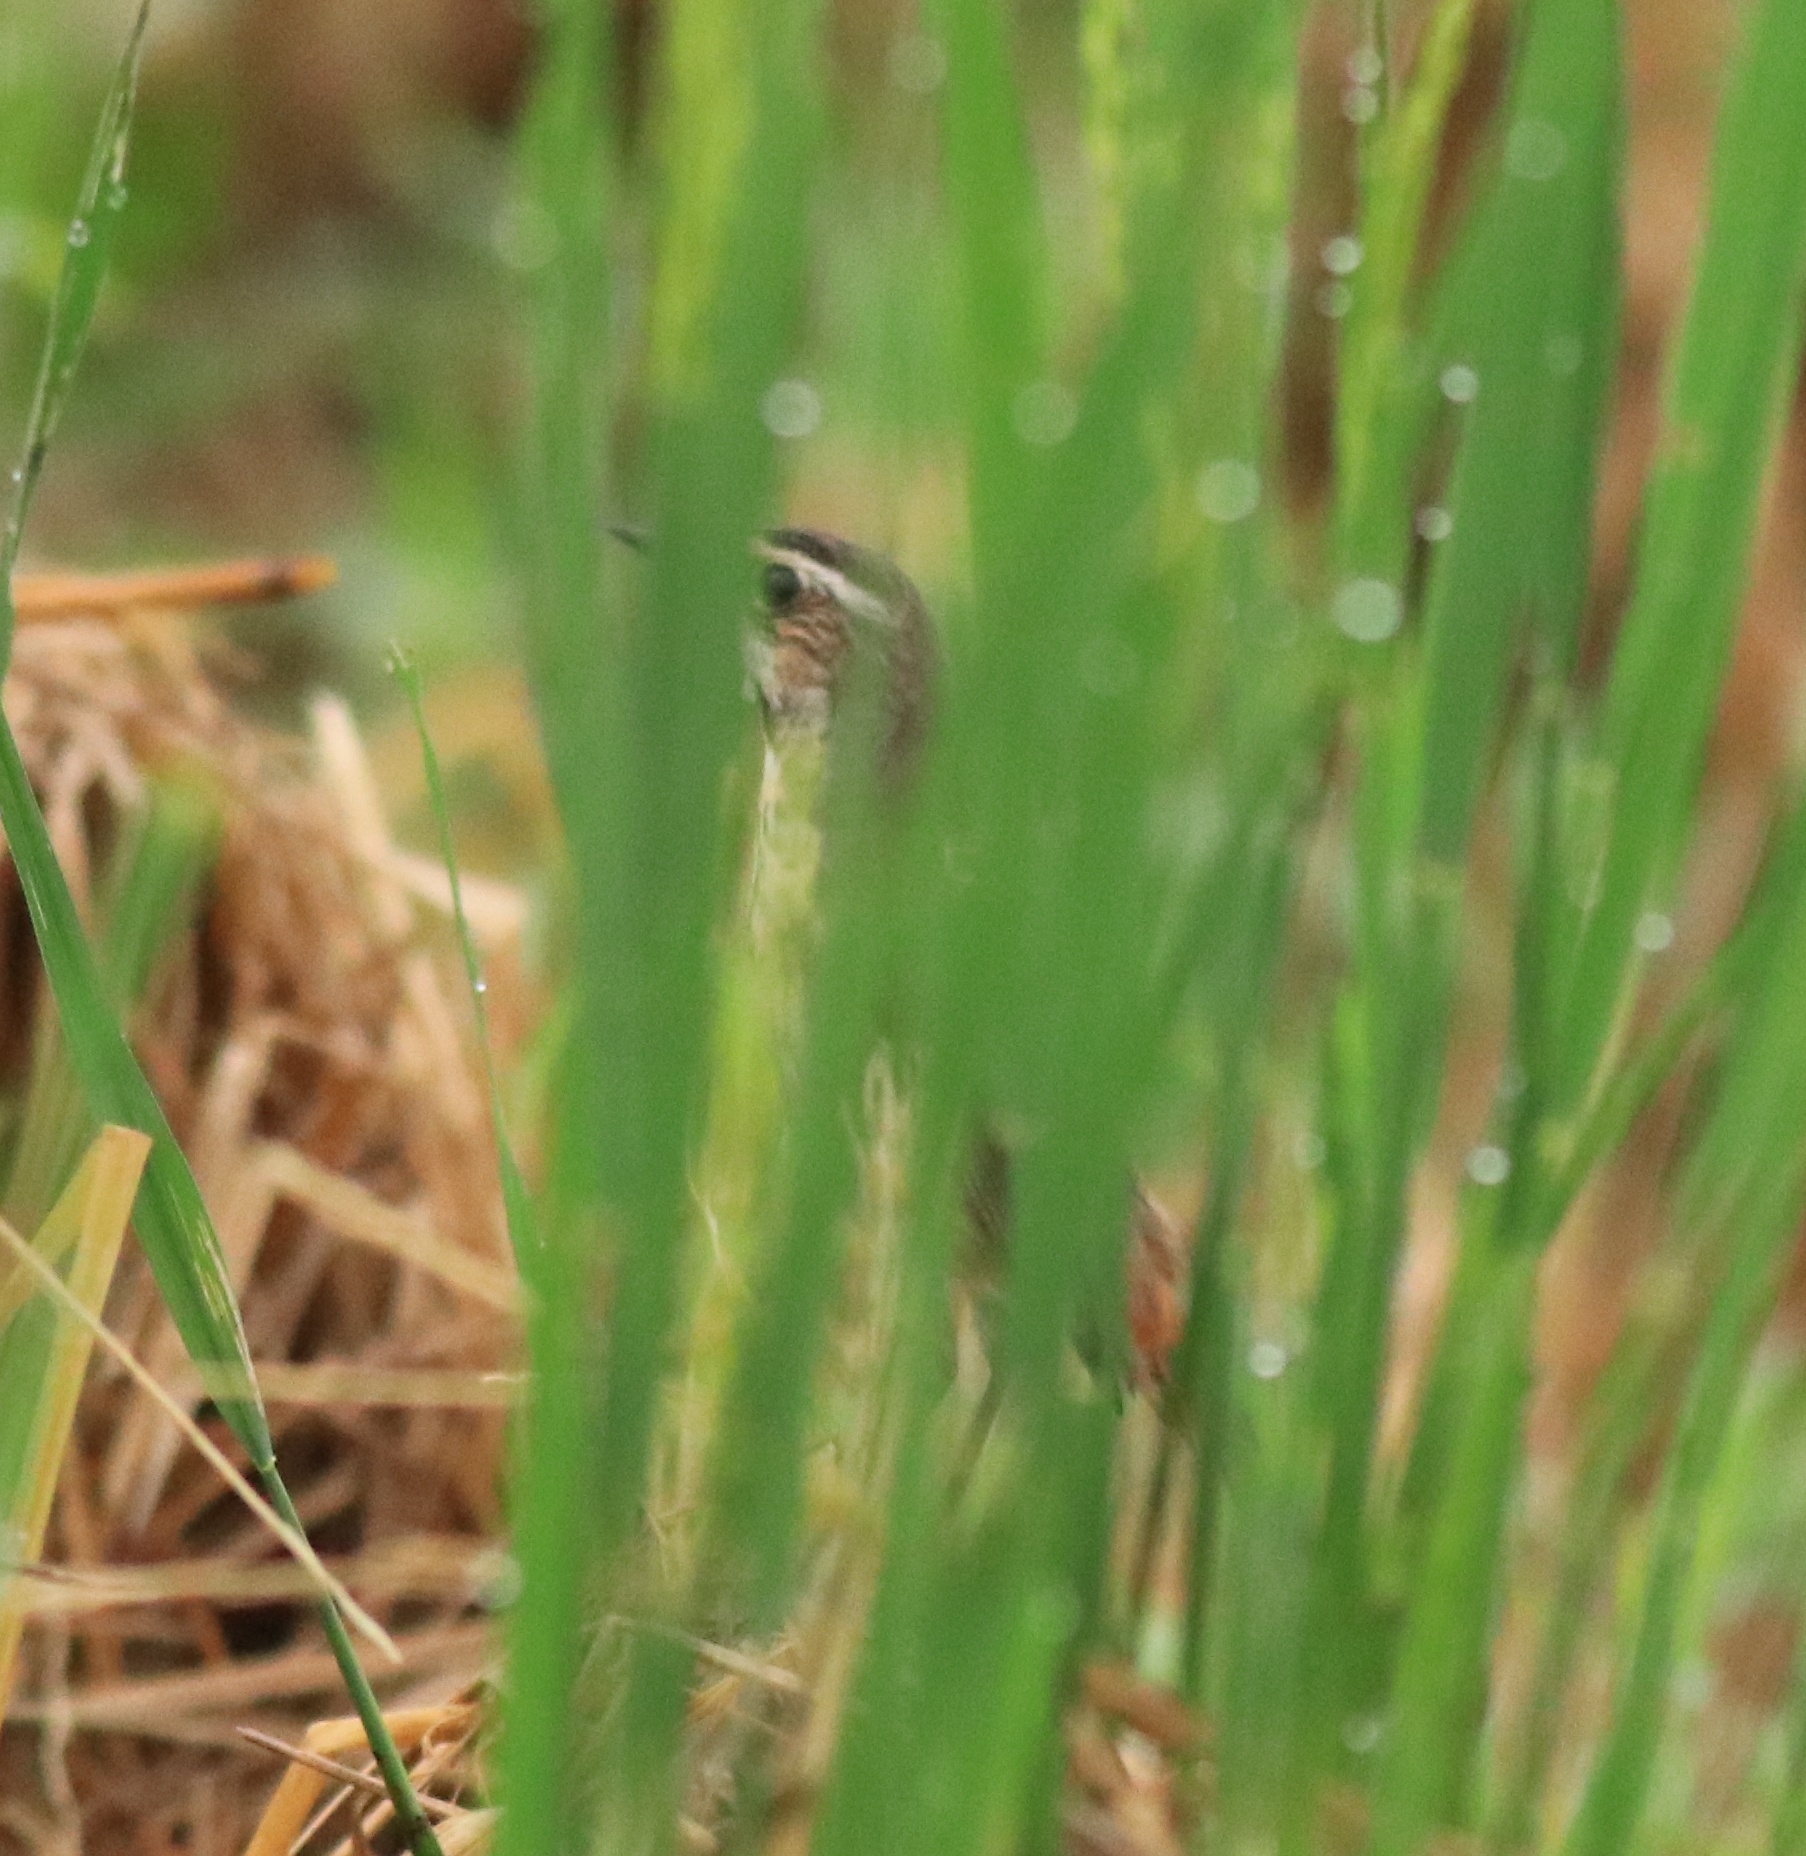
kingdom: Animalia
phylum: Chordata
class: Aves
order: Passeriformes
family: Muscicapidae
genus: Luscinia
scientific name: Luscinia svecica
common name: Bluethroat
